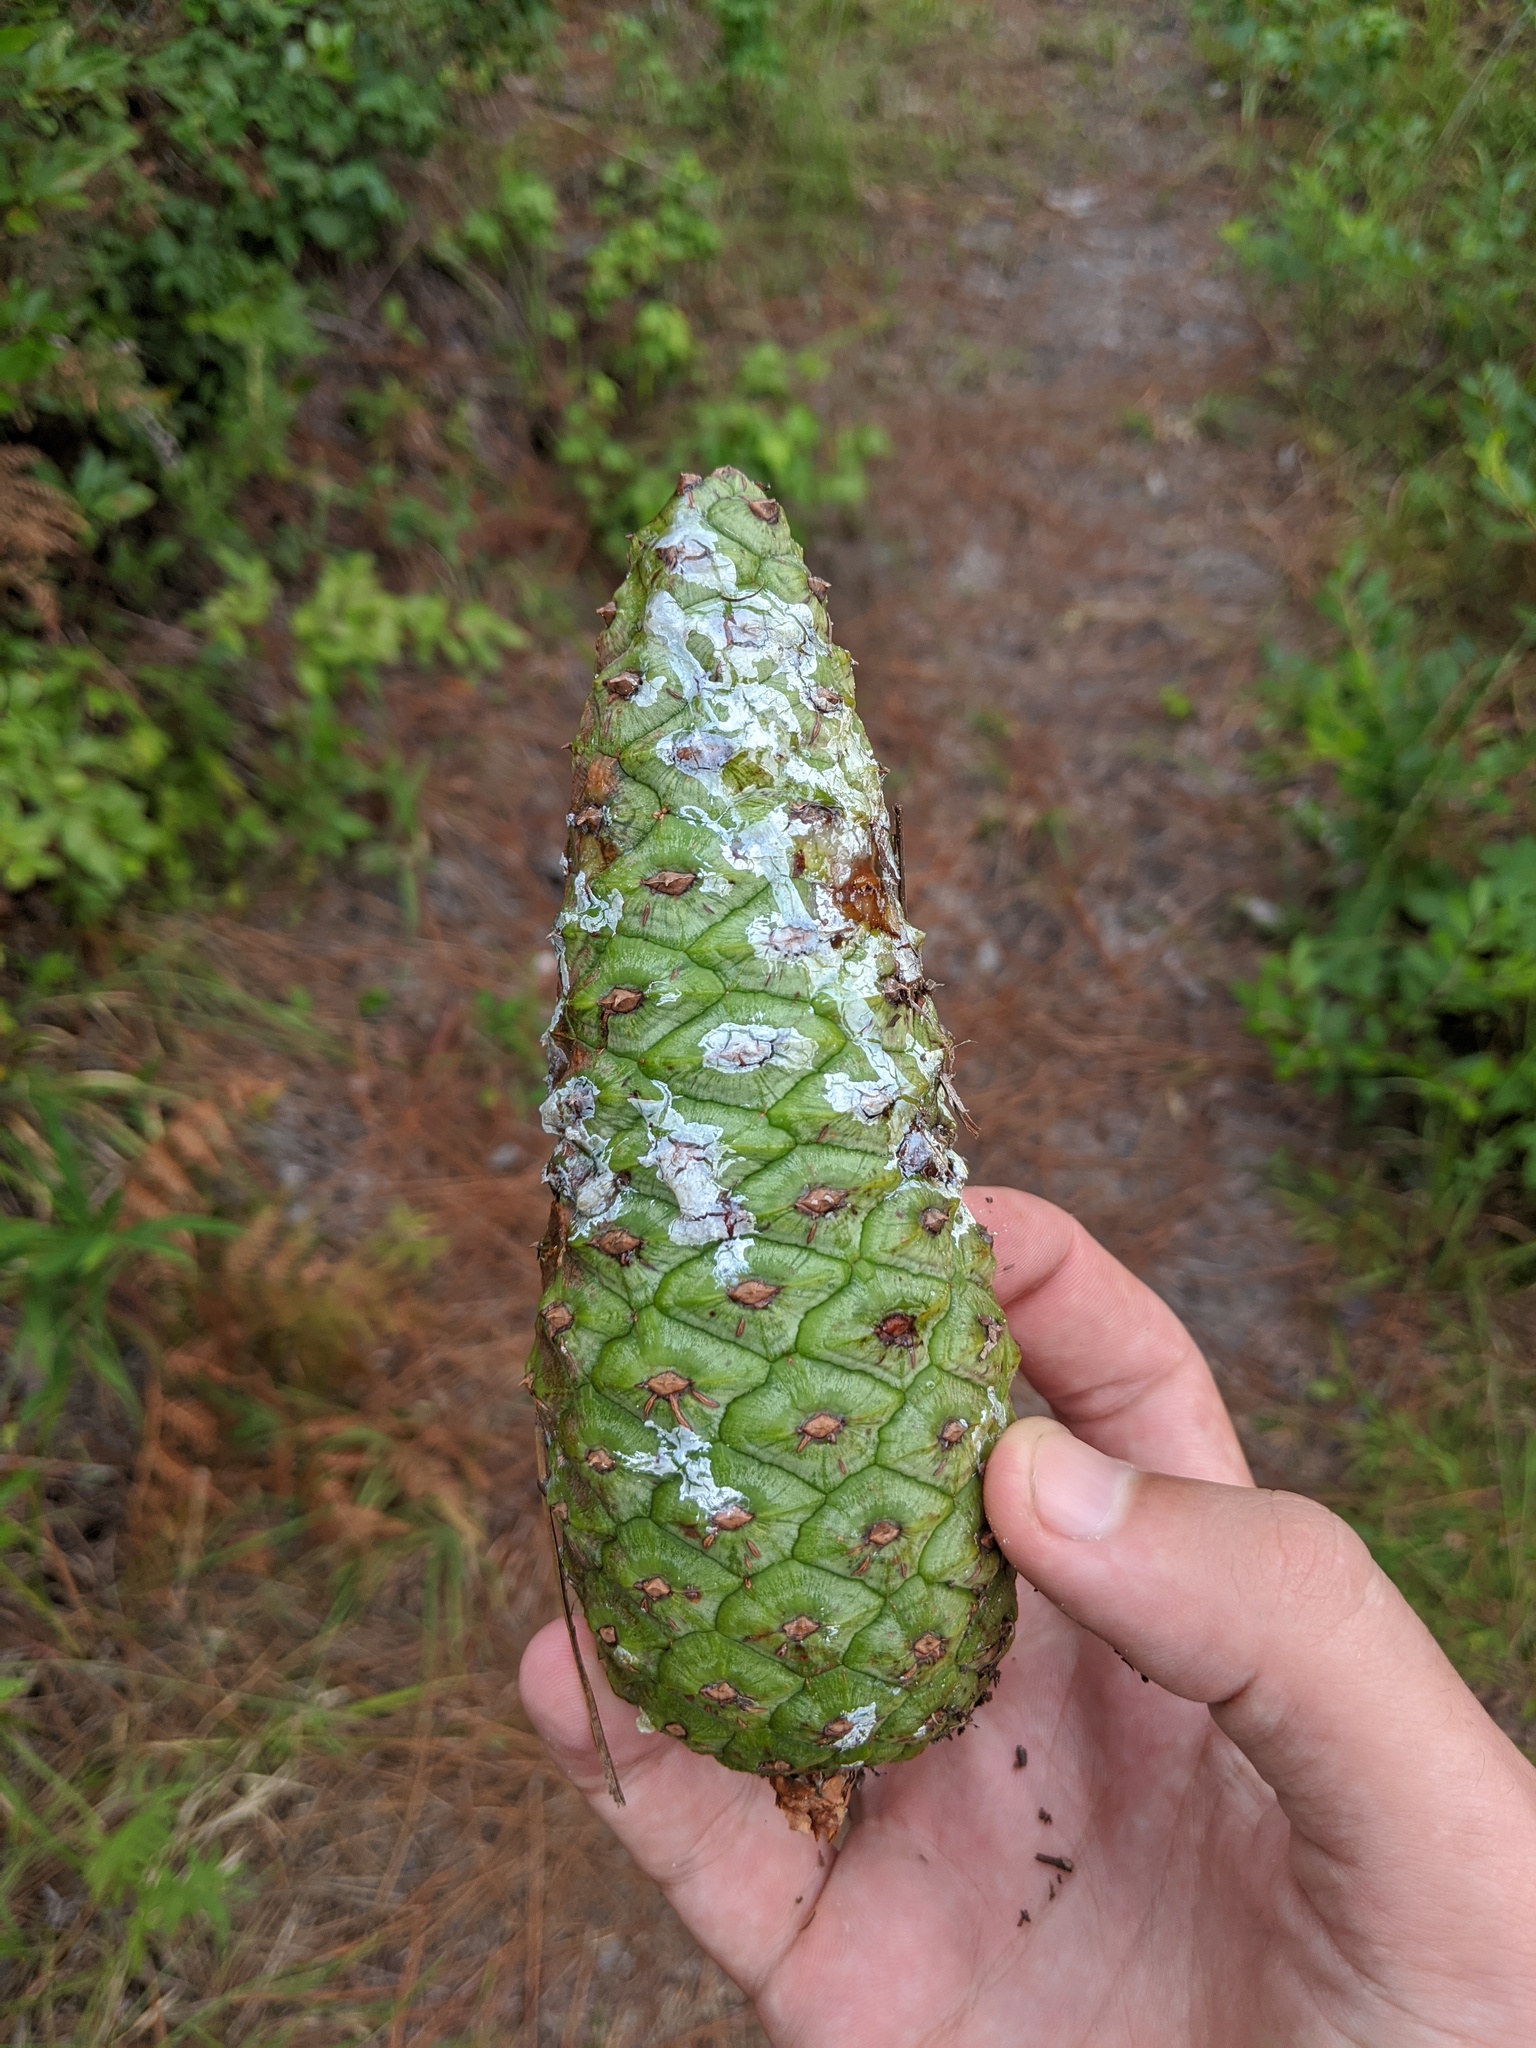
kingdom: Plantae
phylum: Tracheophyta
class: Pinopsida
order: Pinales
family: Pinaceae
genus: Pinus
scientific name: Pinus palustris
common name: Longleaf pine
